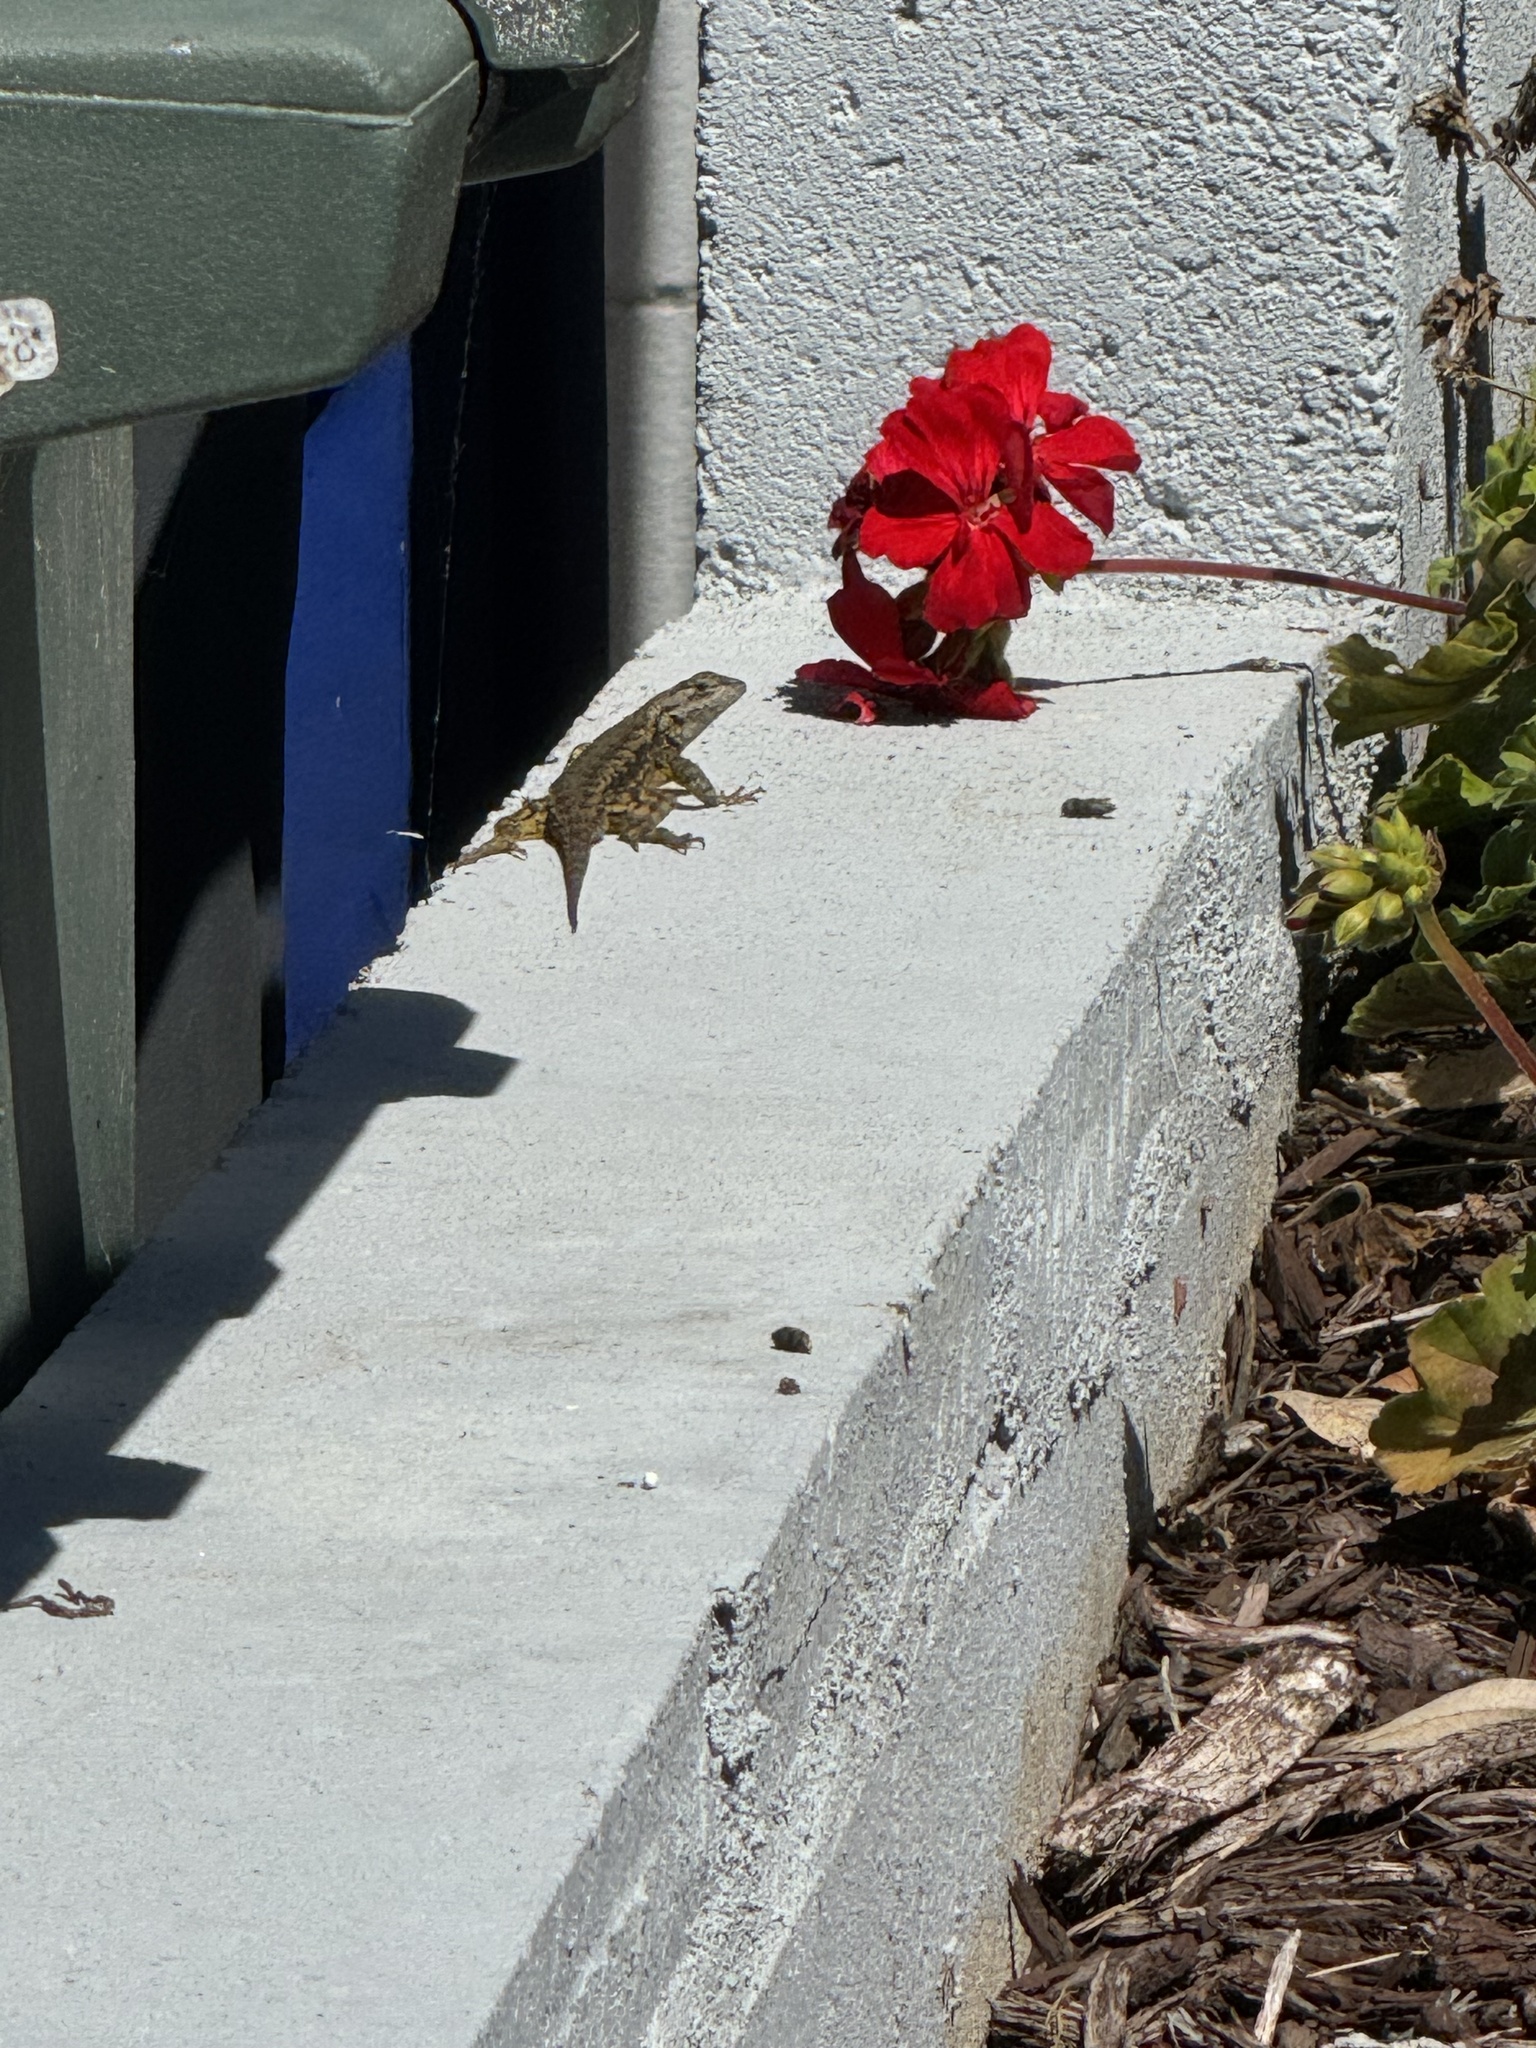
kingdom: Animalia
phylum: Chordata
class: Squamata
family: Phrynosomatidae
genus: Sceloporus
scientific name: Sceloporus occidentalis
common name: Western fence lizard
